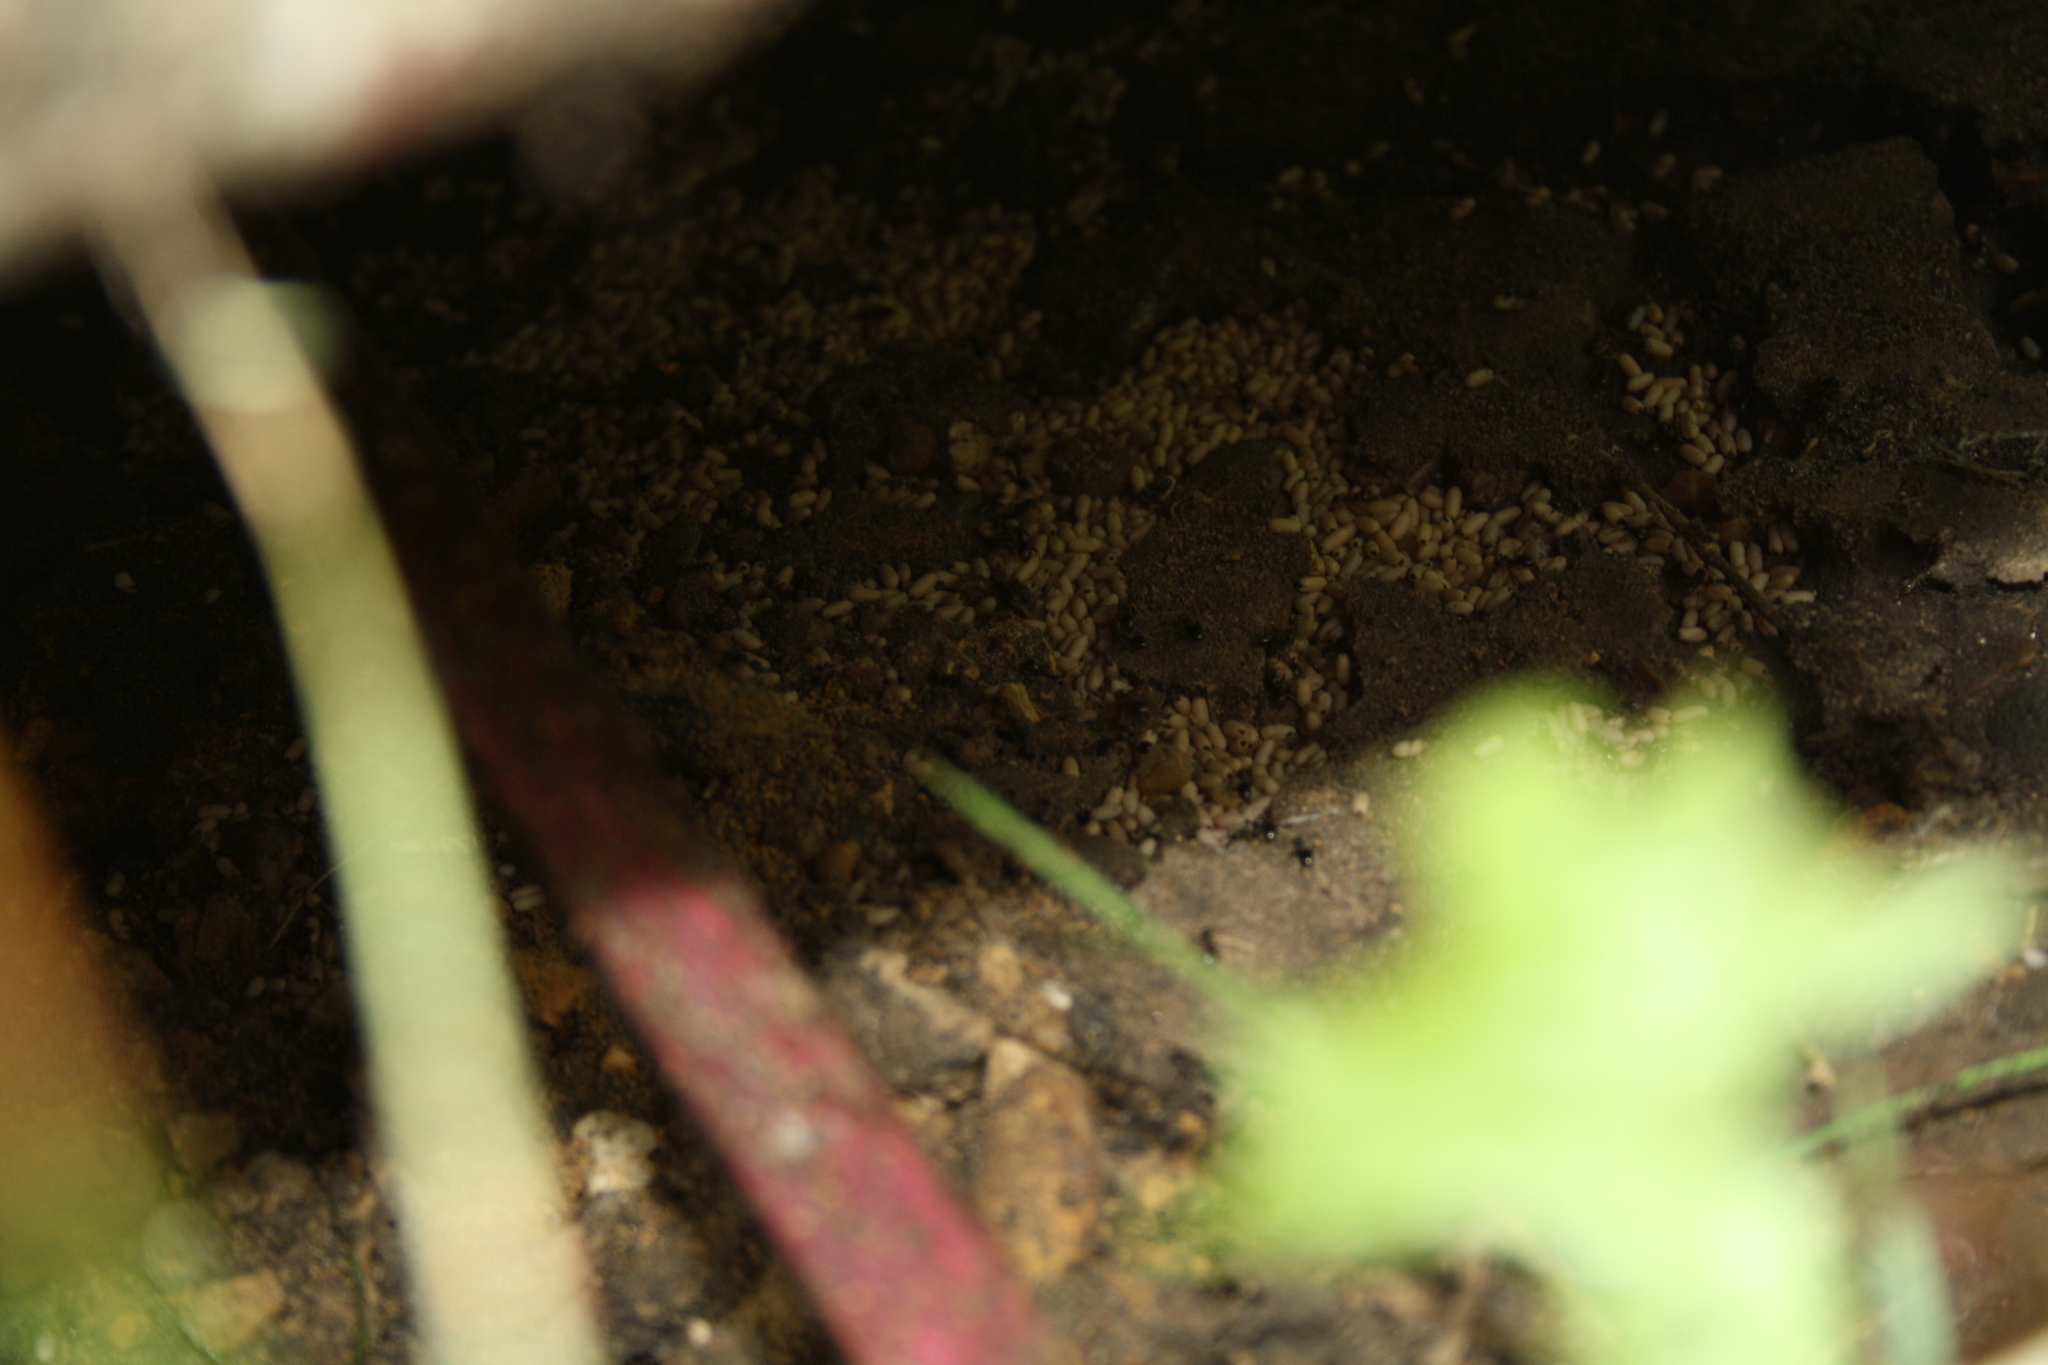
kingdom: Animalia
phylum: Arthropoda
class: Insecta
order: Hymenoptera
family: Formicidae
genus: Lasius
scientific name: Lasius flavus
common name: Blond field ant
